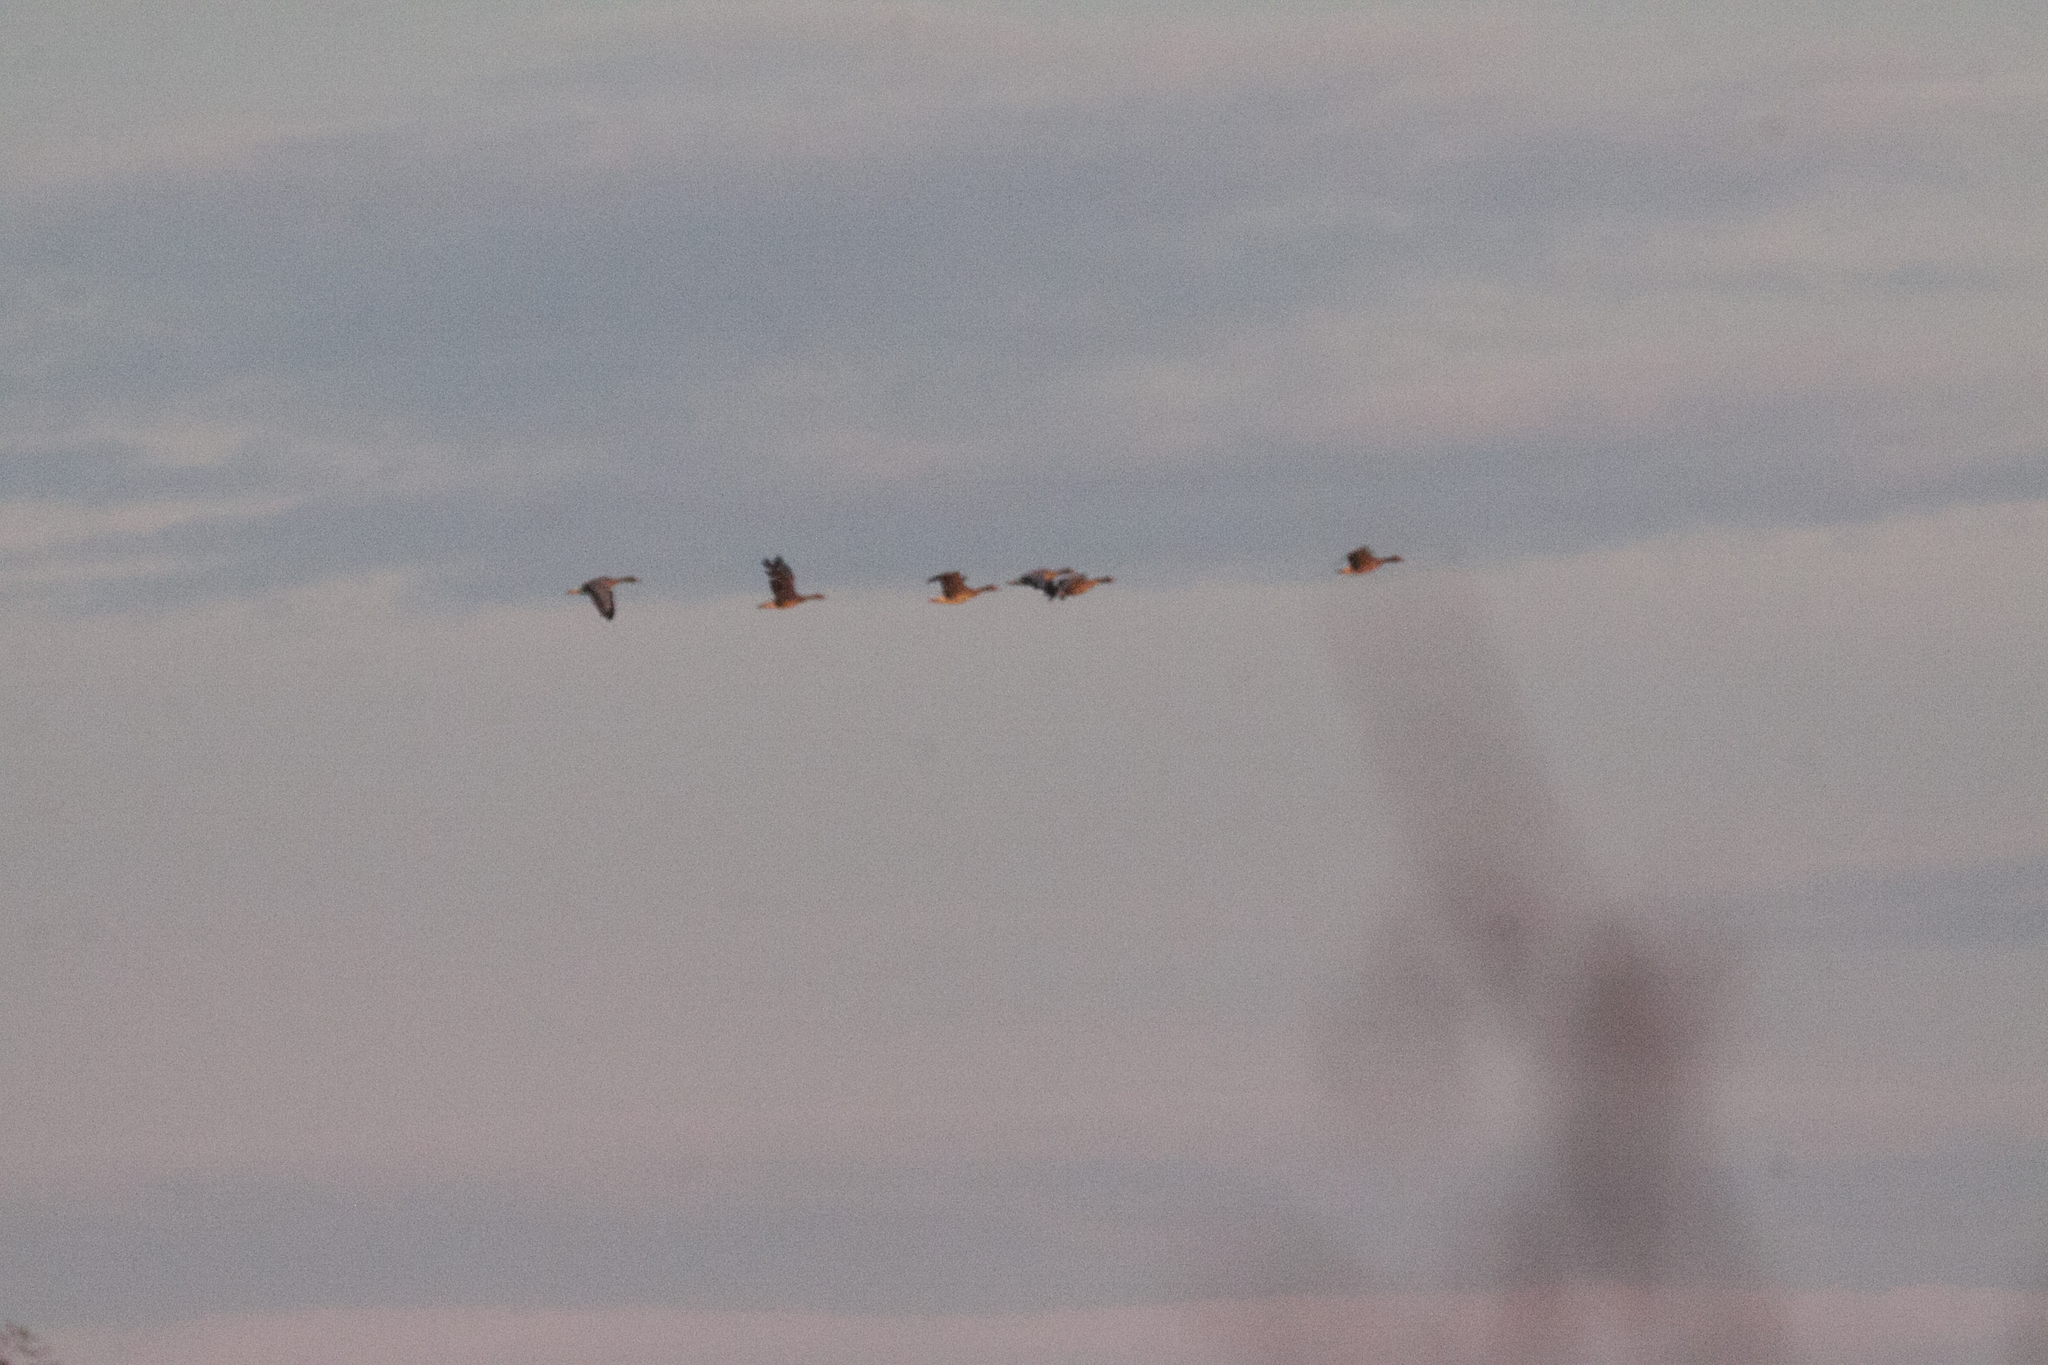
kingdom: Animalia
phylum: Chordata
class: Aves
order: Anseriformes
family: Anatidae
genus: Anser
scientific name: Anser albifrons
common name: Greater white-fronted goose
